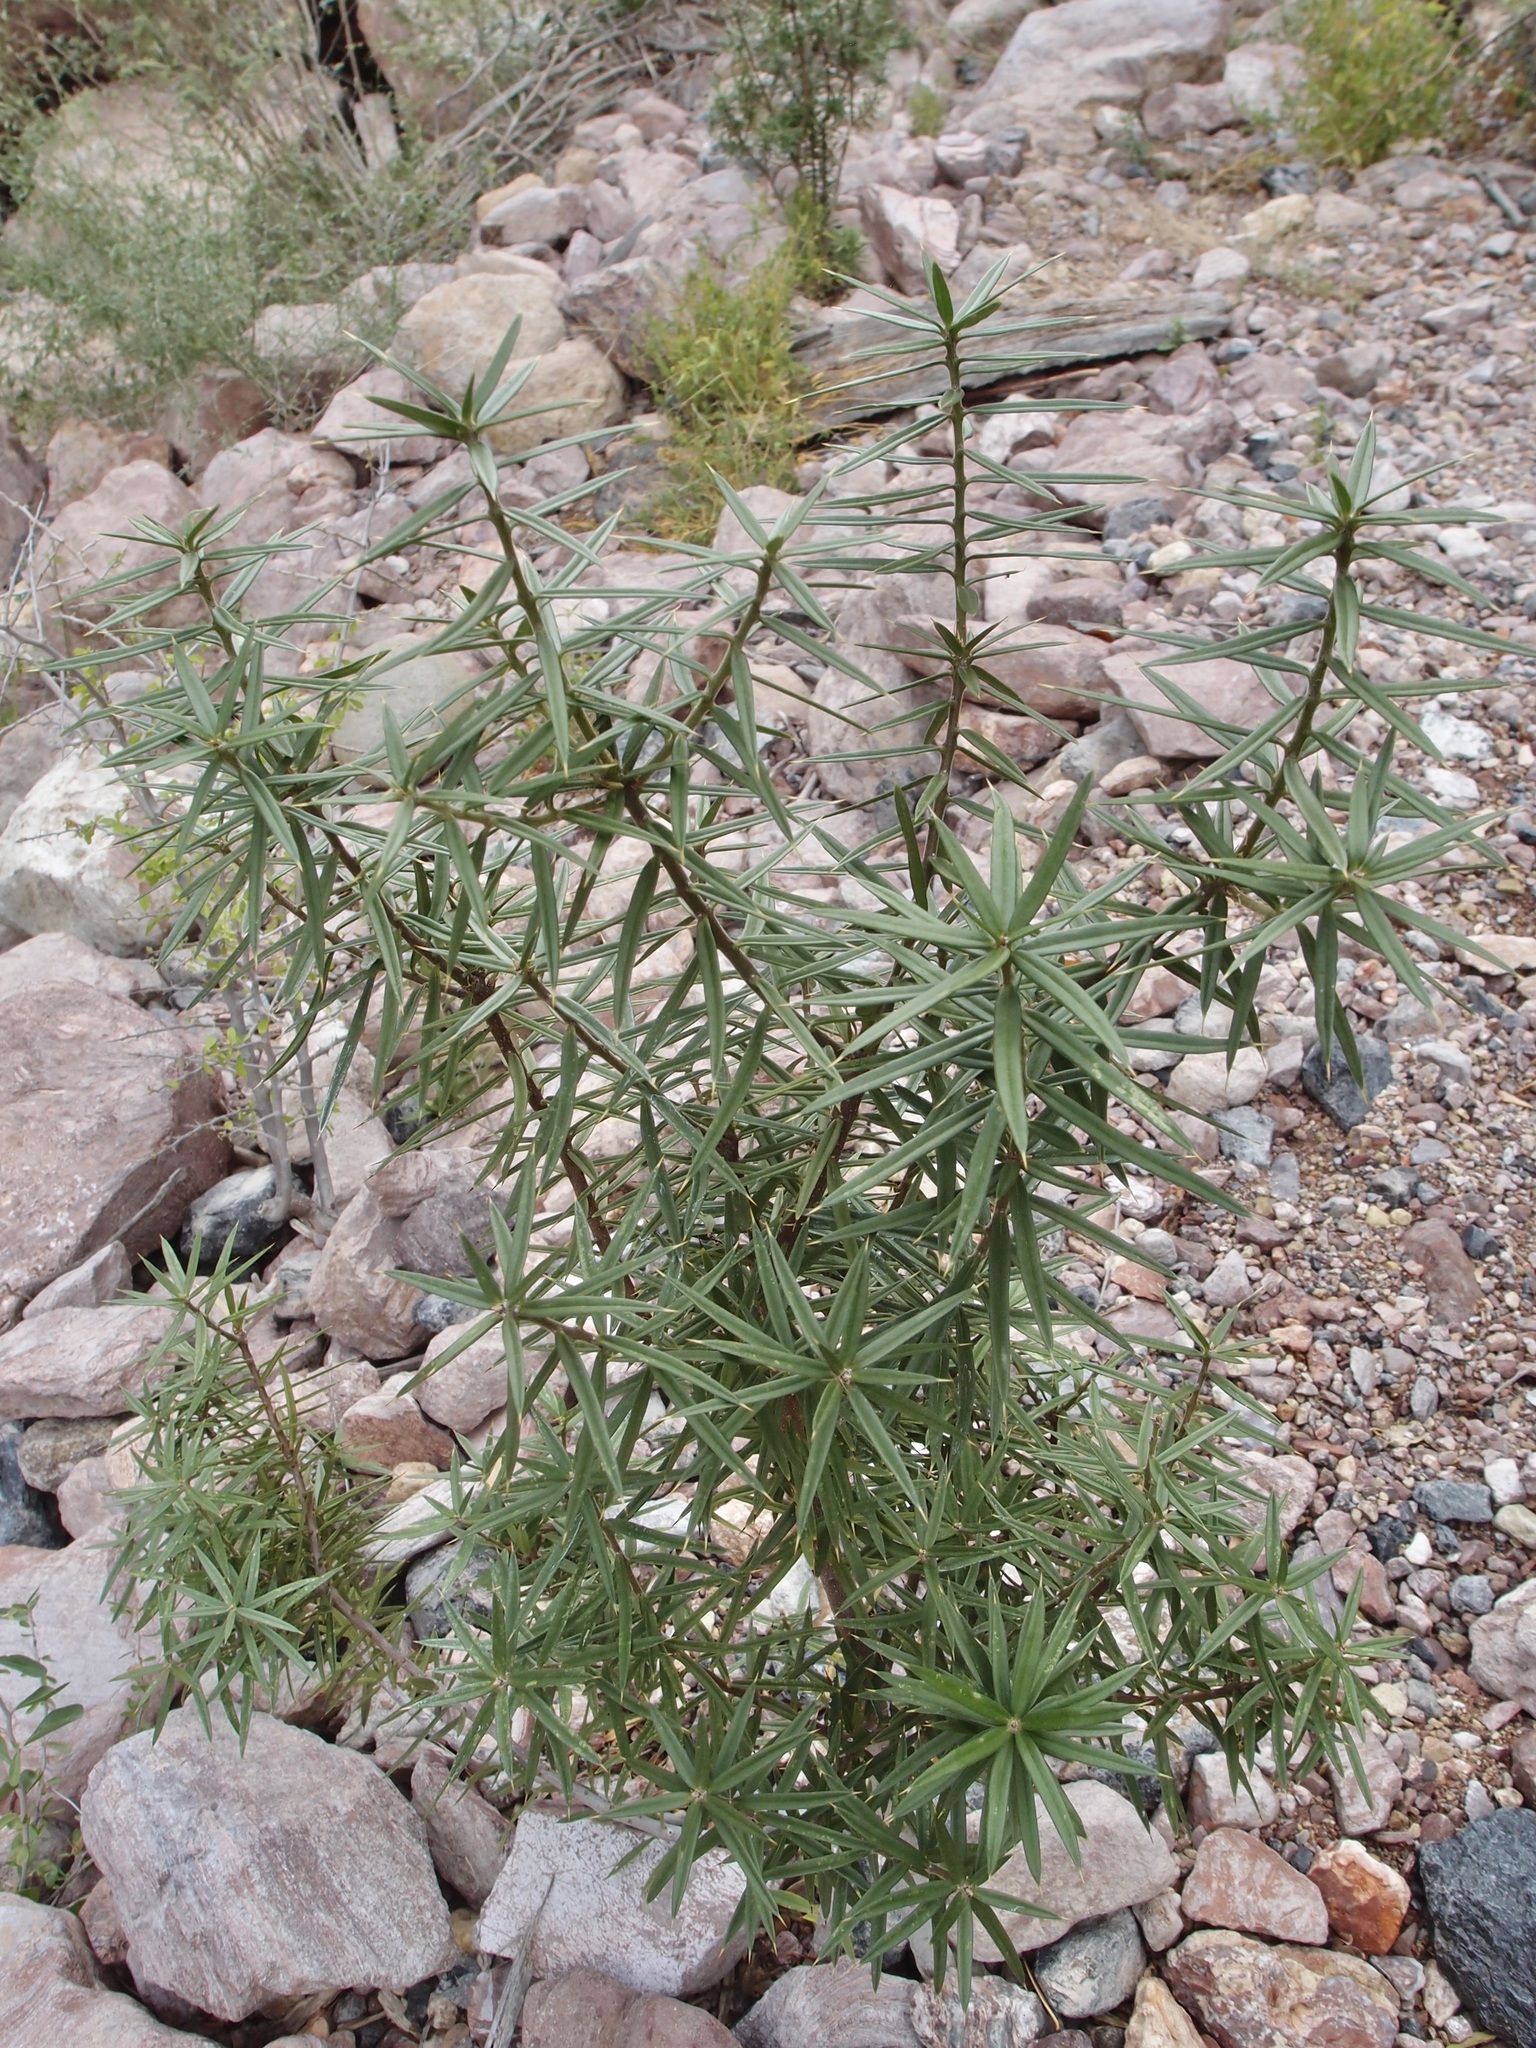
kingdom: Plantae
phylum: Tracheophyta
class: Magnoliopsida
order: Ericales
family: Primulaceae
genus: Bonellia
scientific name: Bonellia macrocarpa
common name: Primrose
